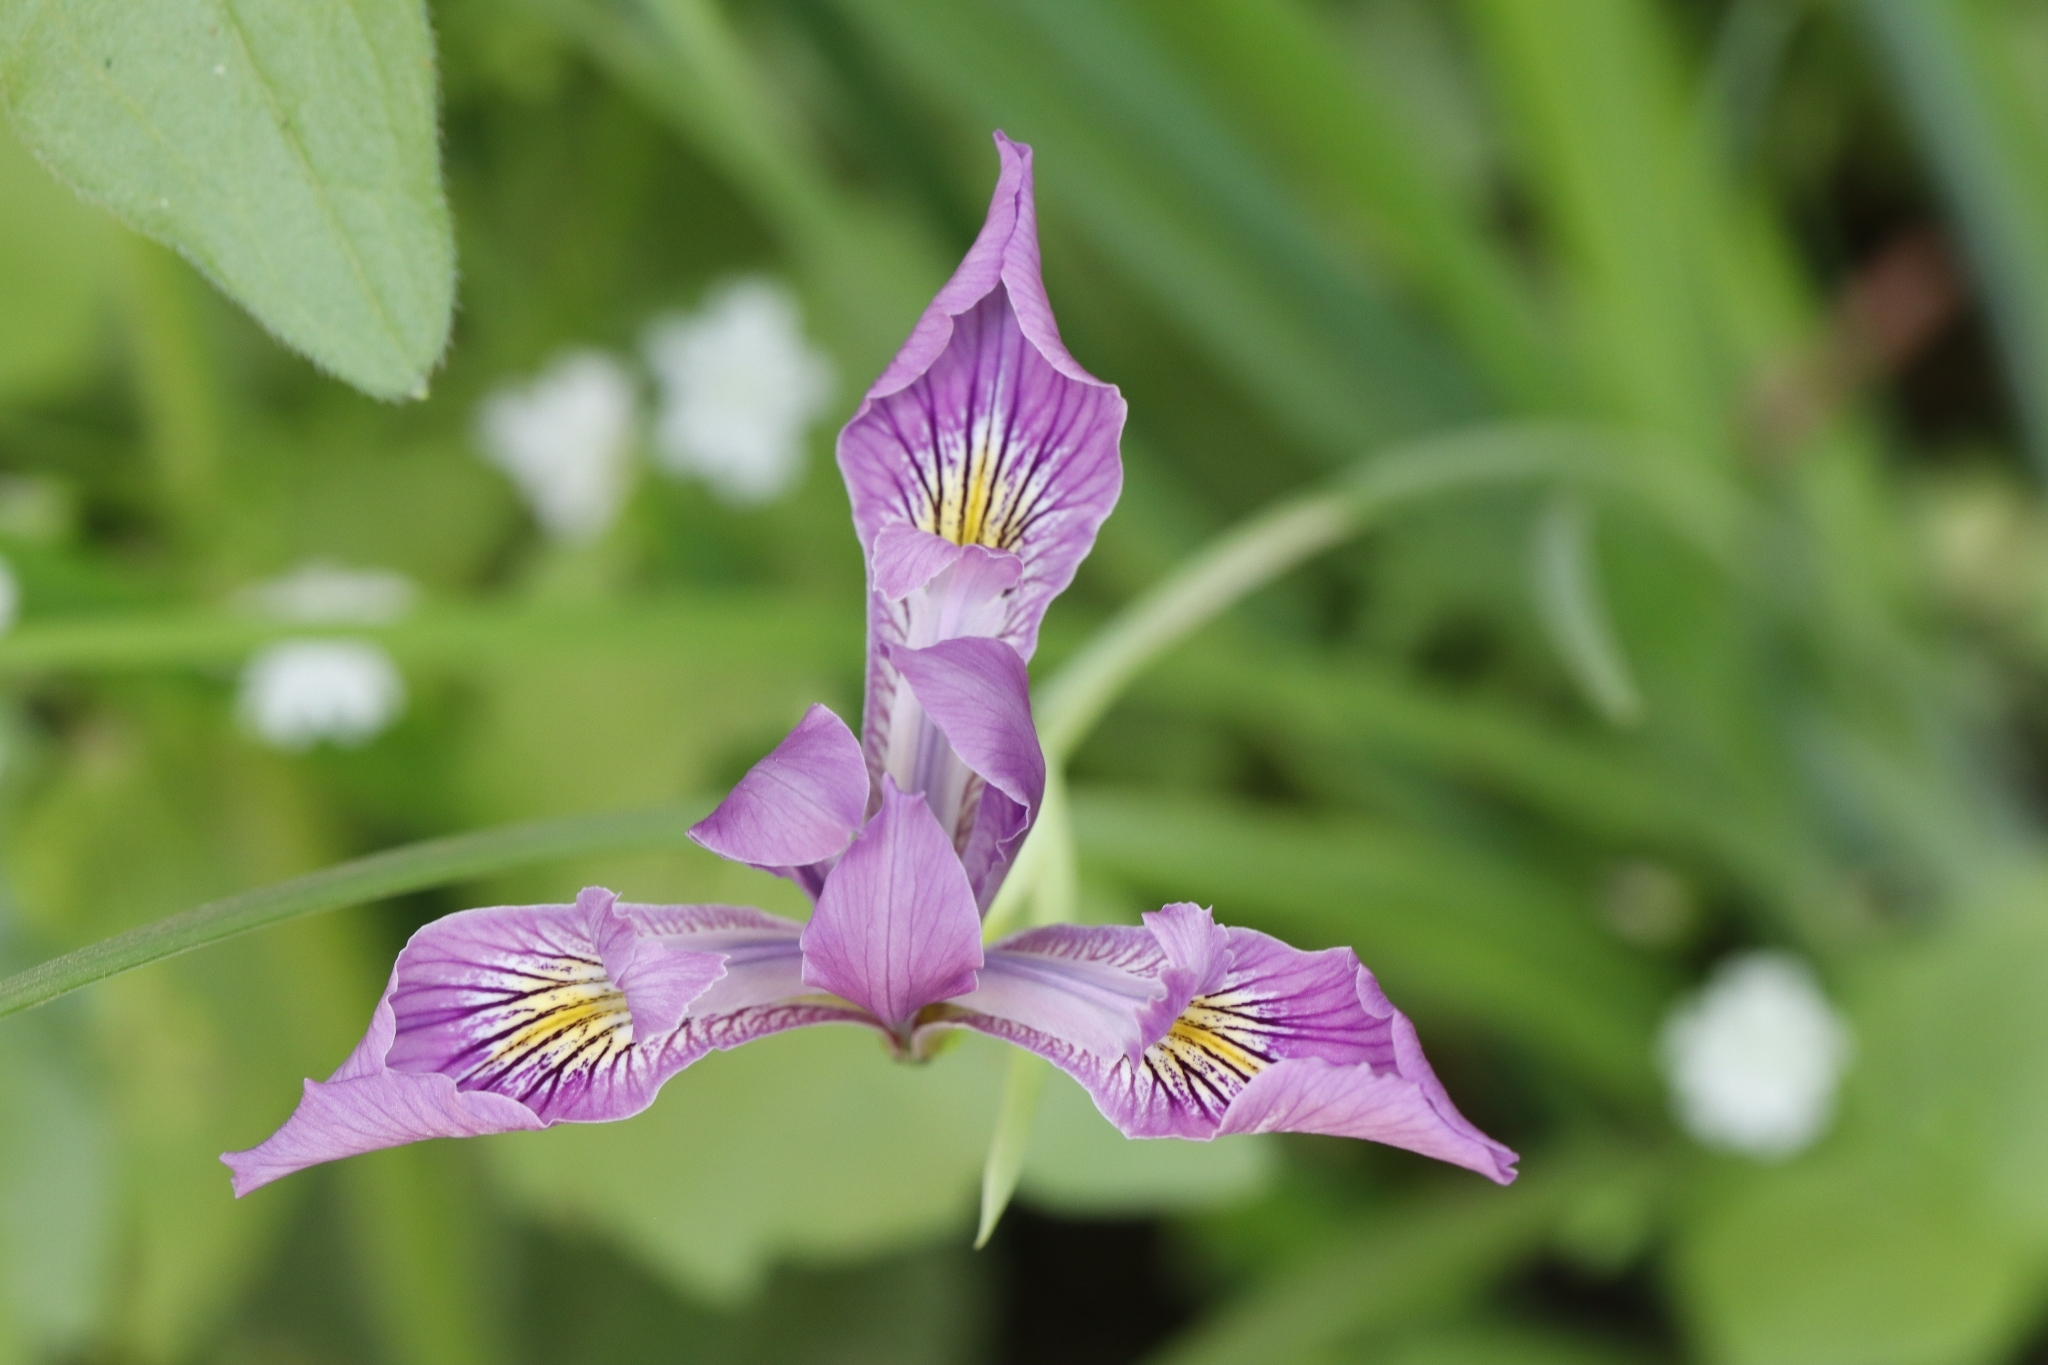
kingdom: Plantae
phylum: Tracheophyta
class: Liliopsida
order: Asparagales
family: Iridaceae
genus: Iris
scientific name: Iris tenax
